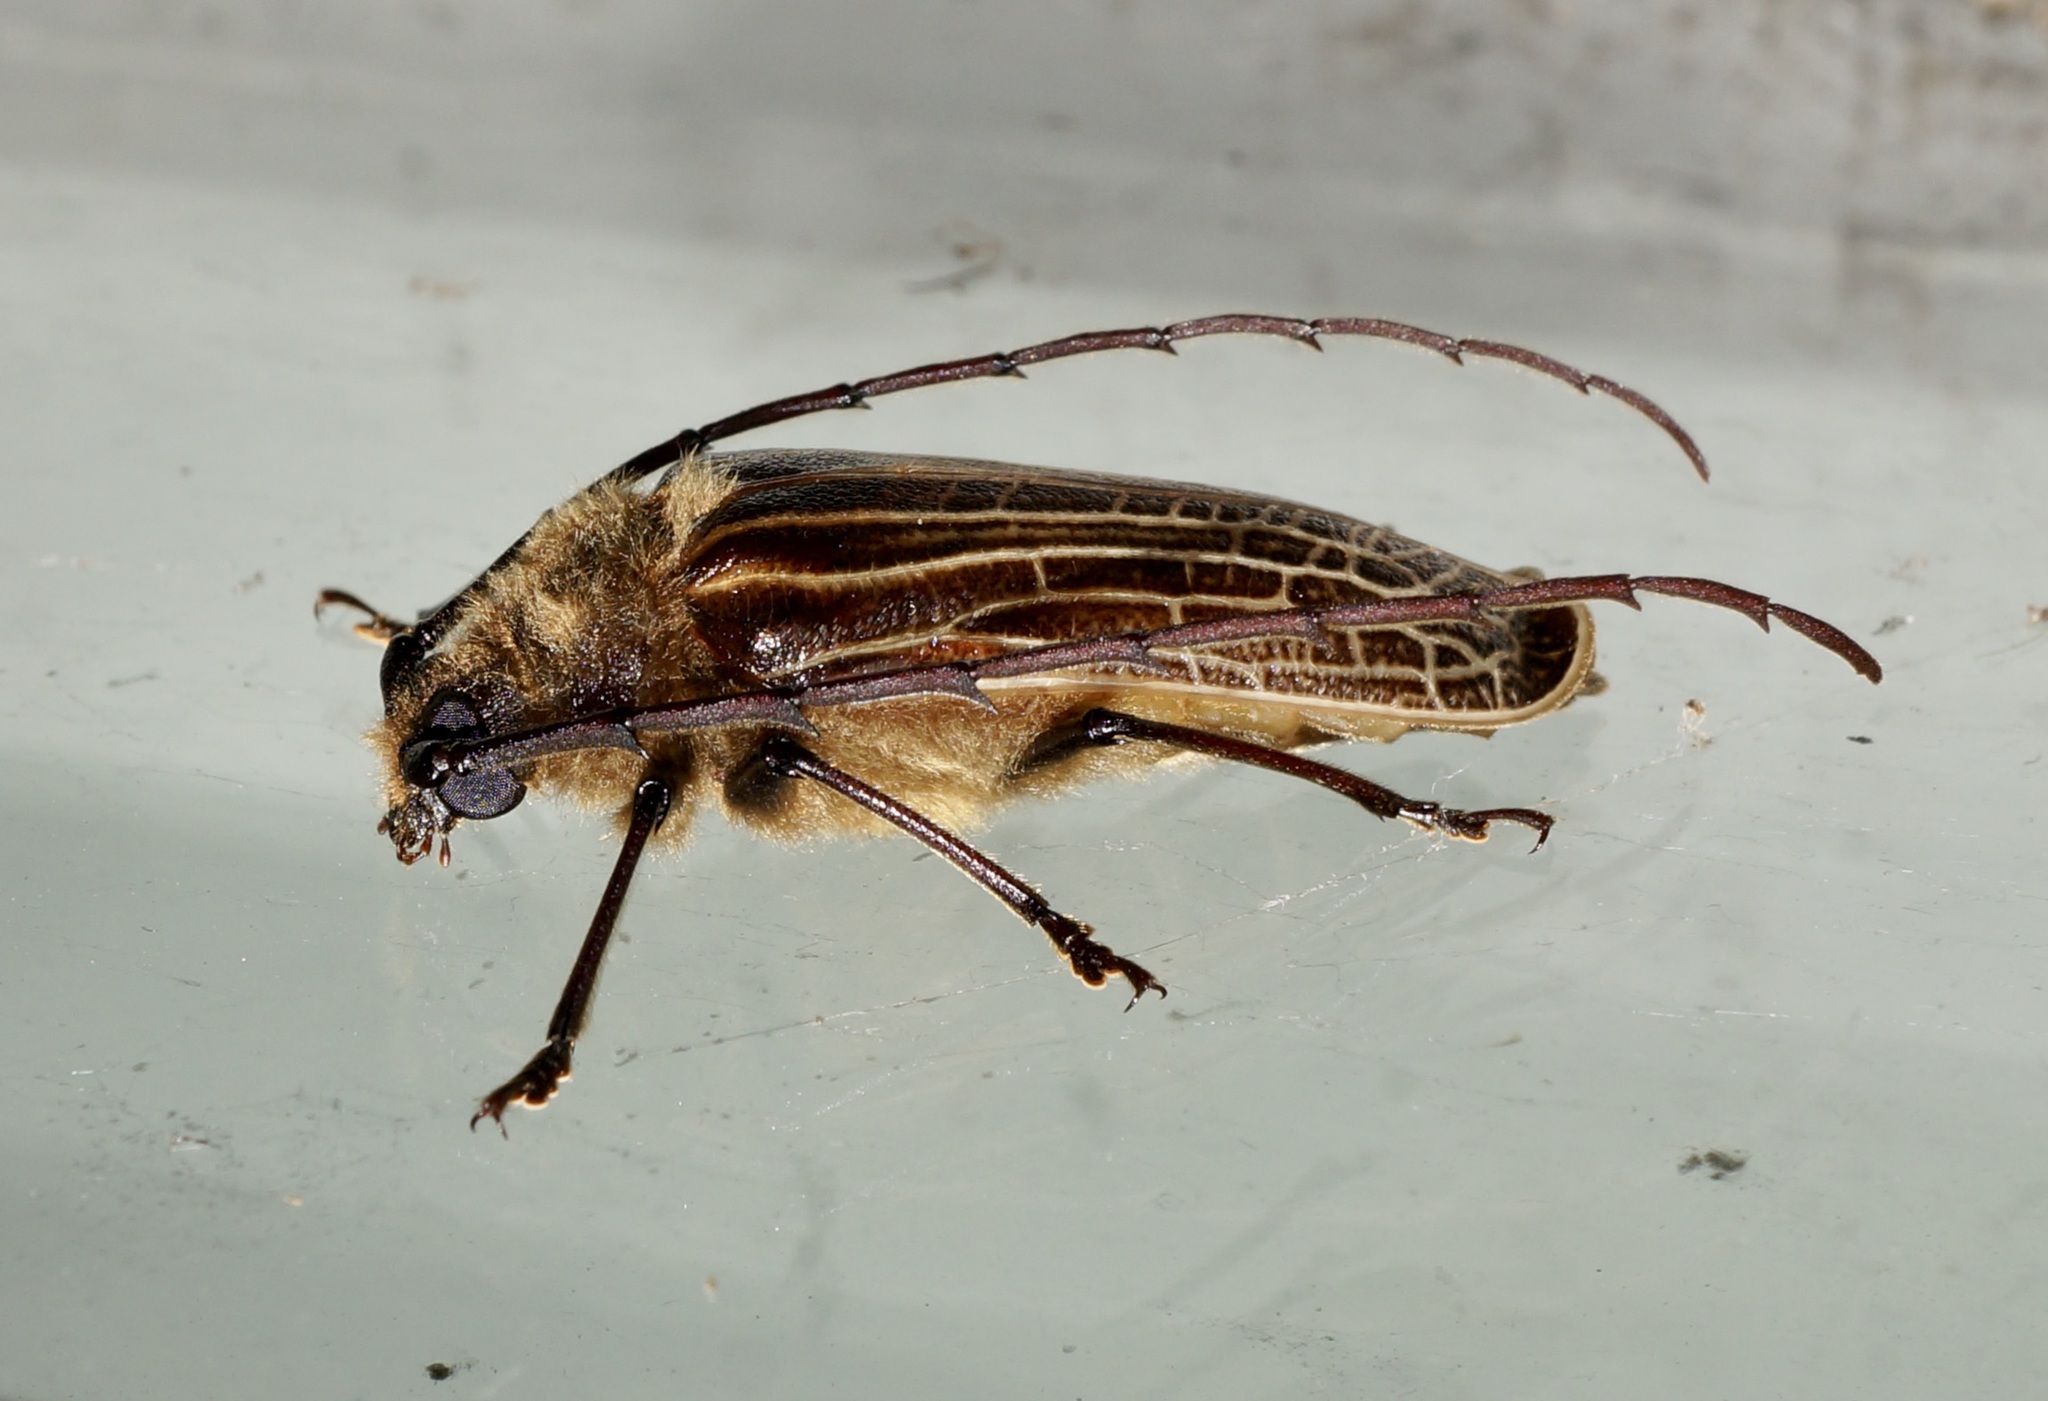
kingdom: Animalia
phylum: Arthropoda
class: Insecta
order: Coleoptera
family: Cerambycidae
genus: Prionoplus
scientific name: Prionoplus reticularis
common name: Huhu beetle
